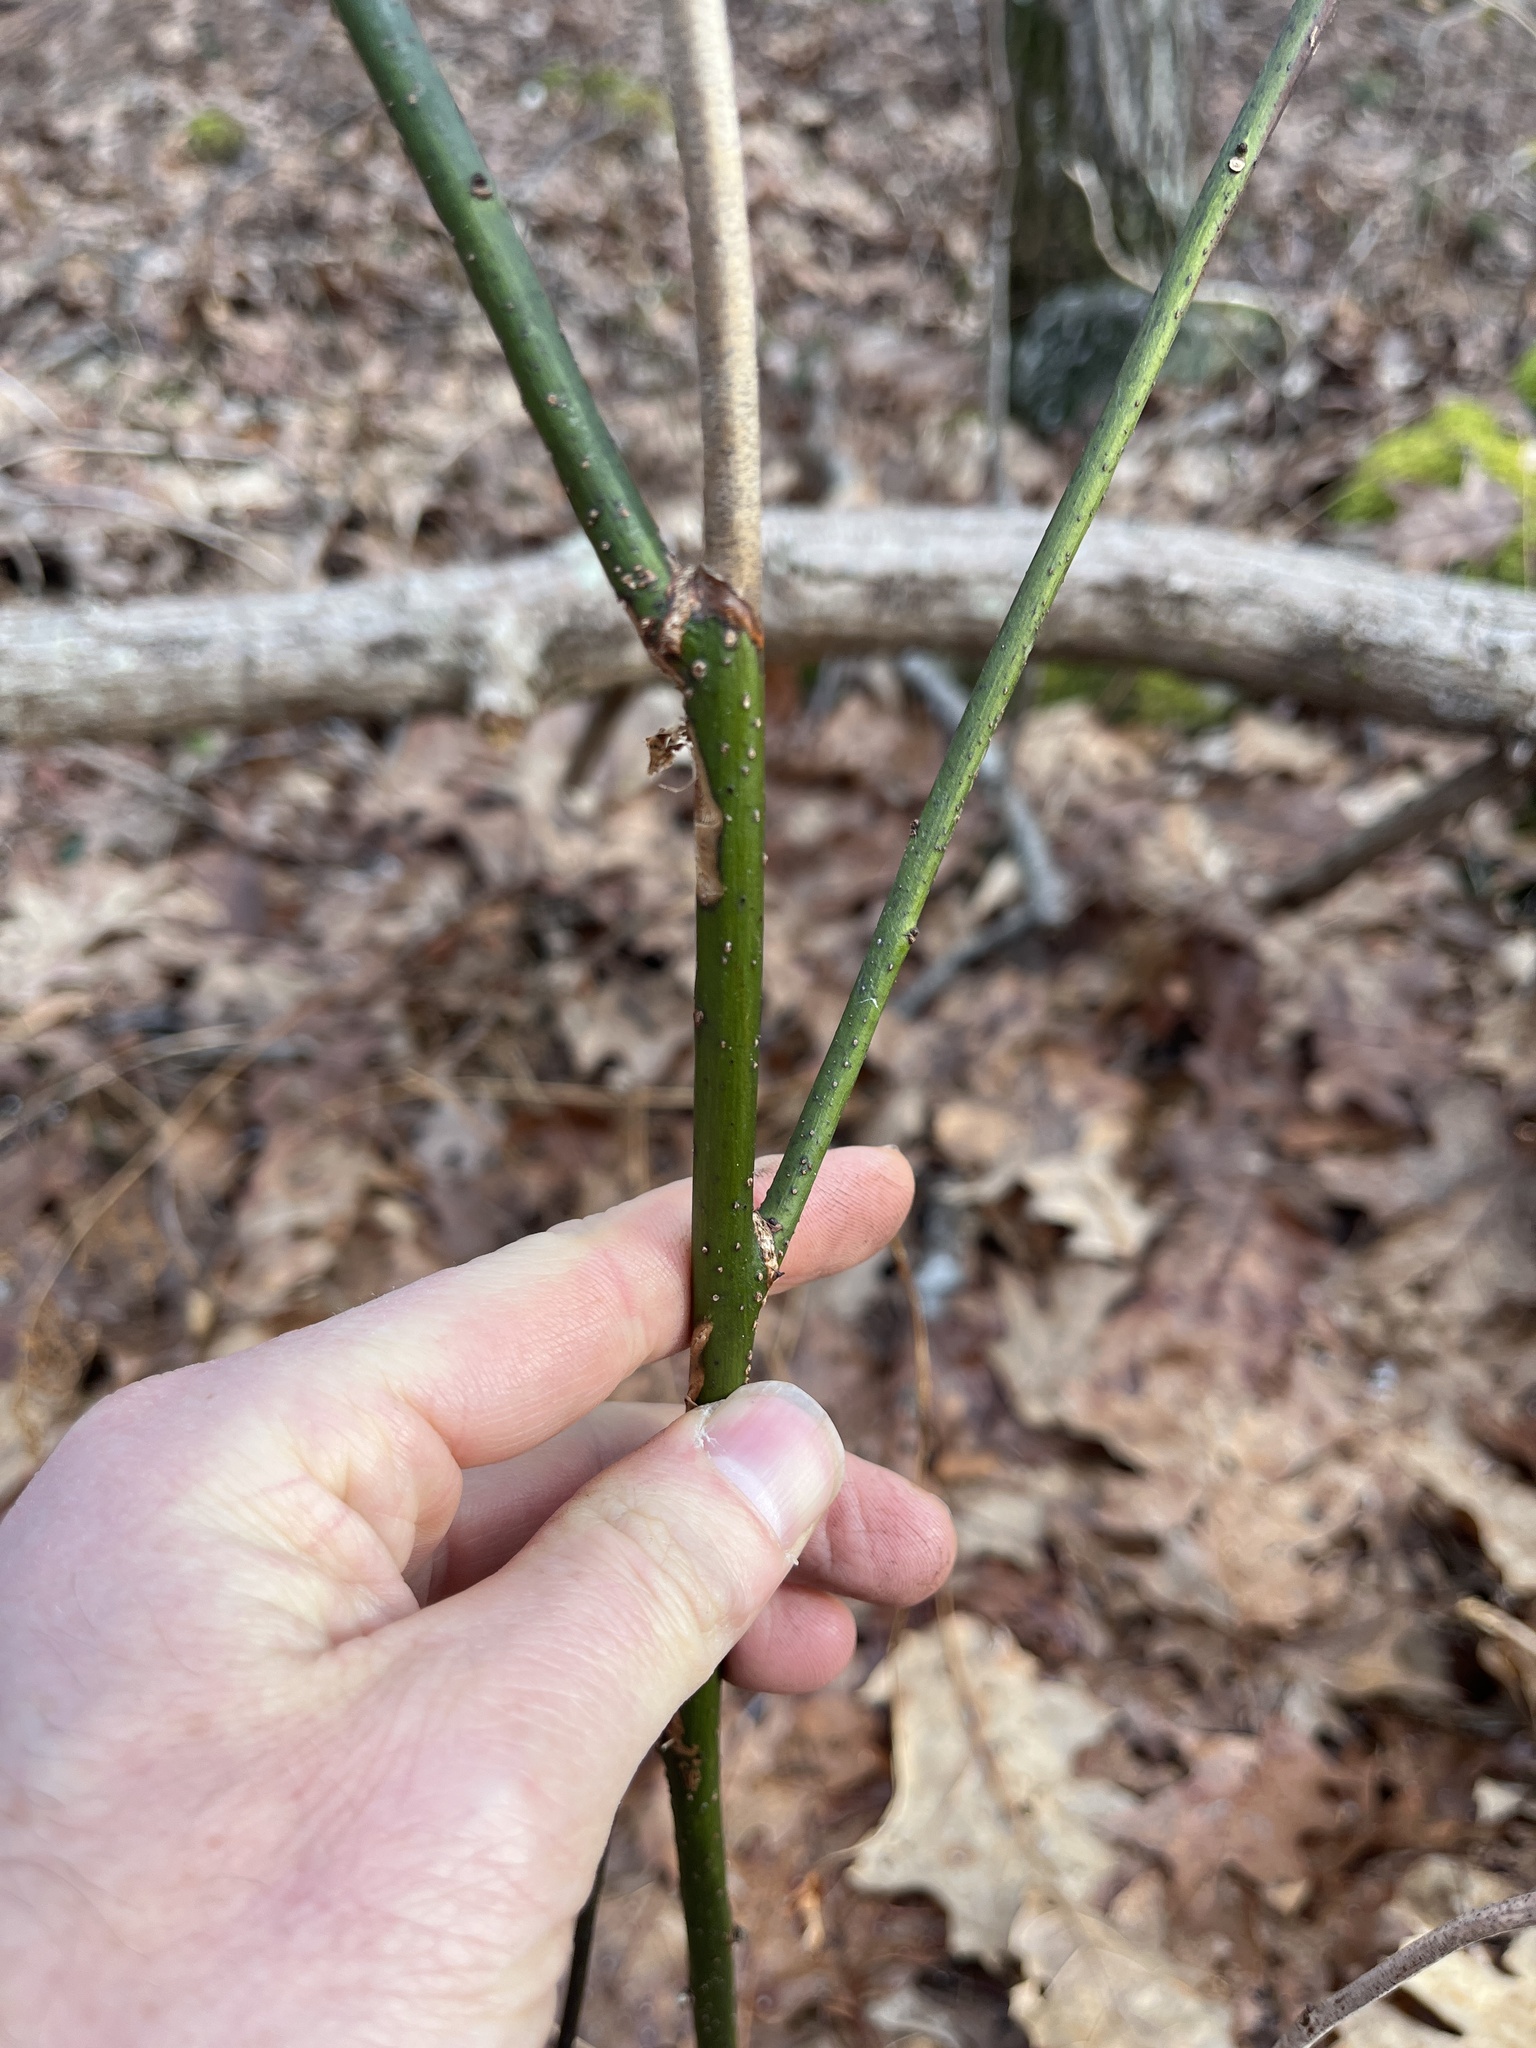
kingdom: Plantae
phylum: Tracheophyta
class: Magnoliopsida
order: Laurales
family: Lauraceae
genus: Sassafras
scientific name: Sassafras albidum
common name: Sassafras
